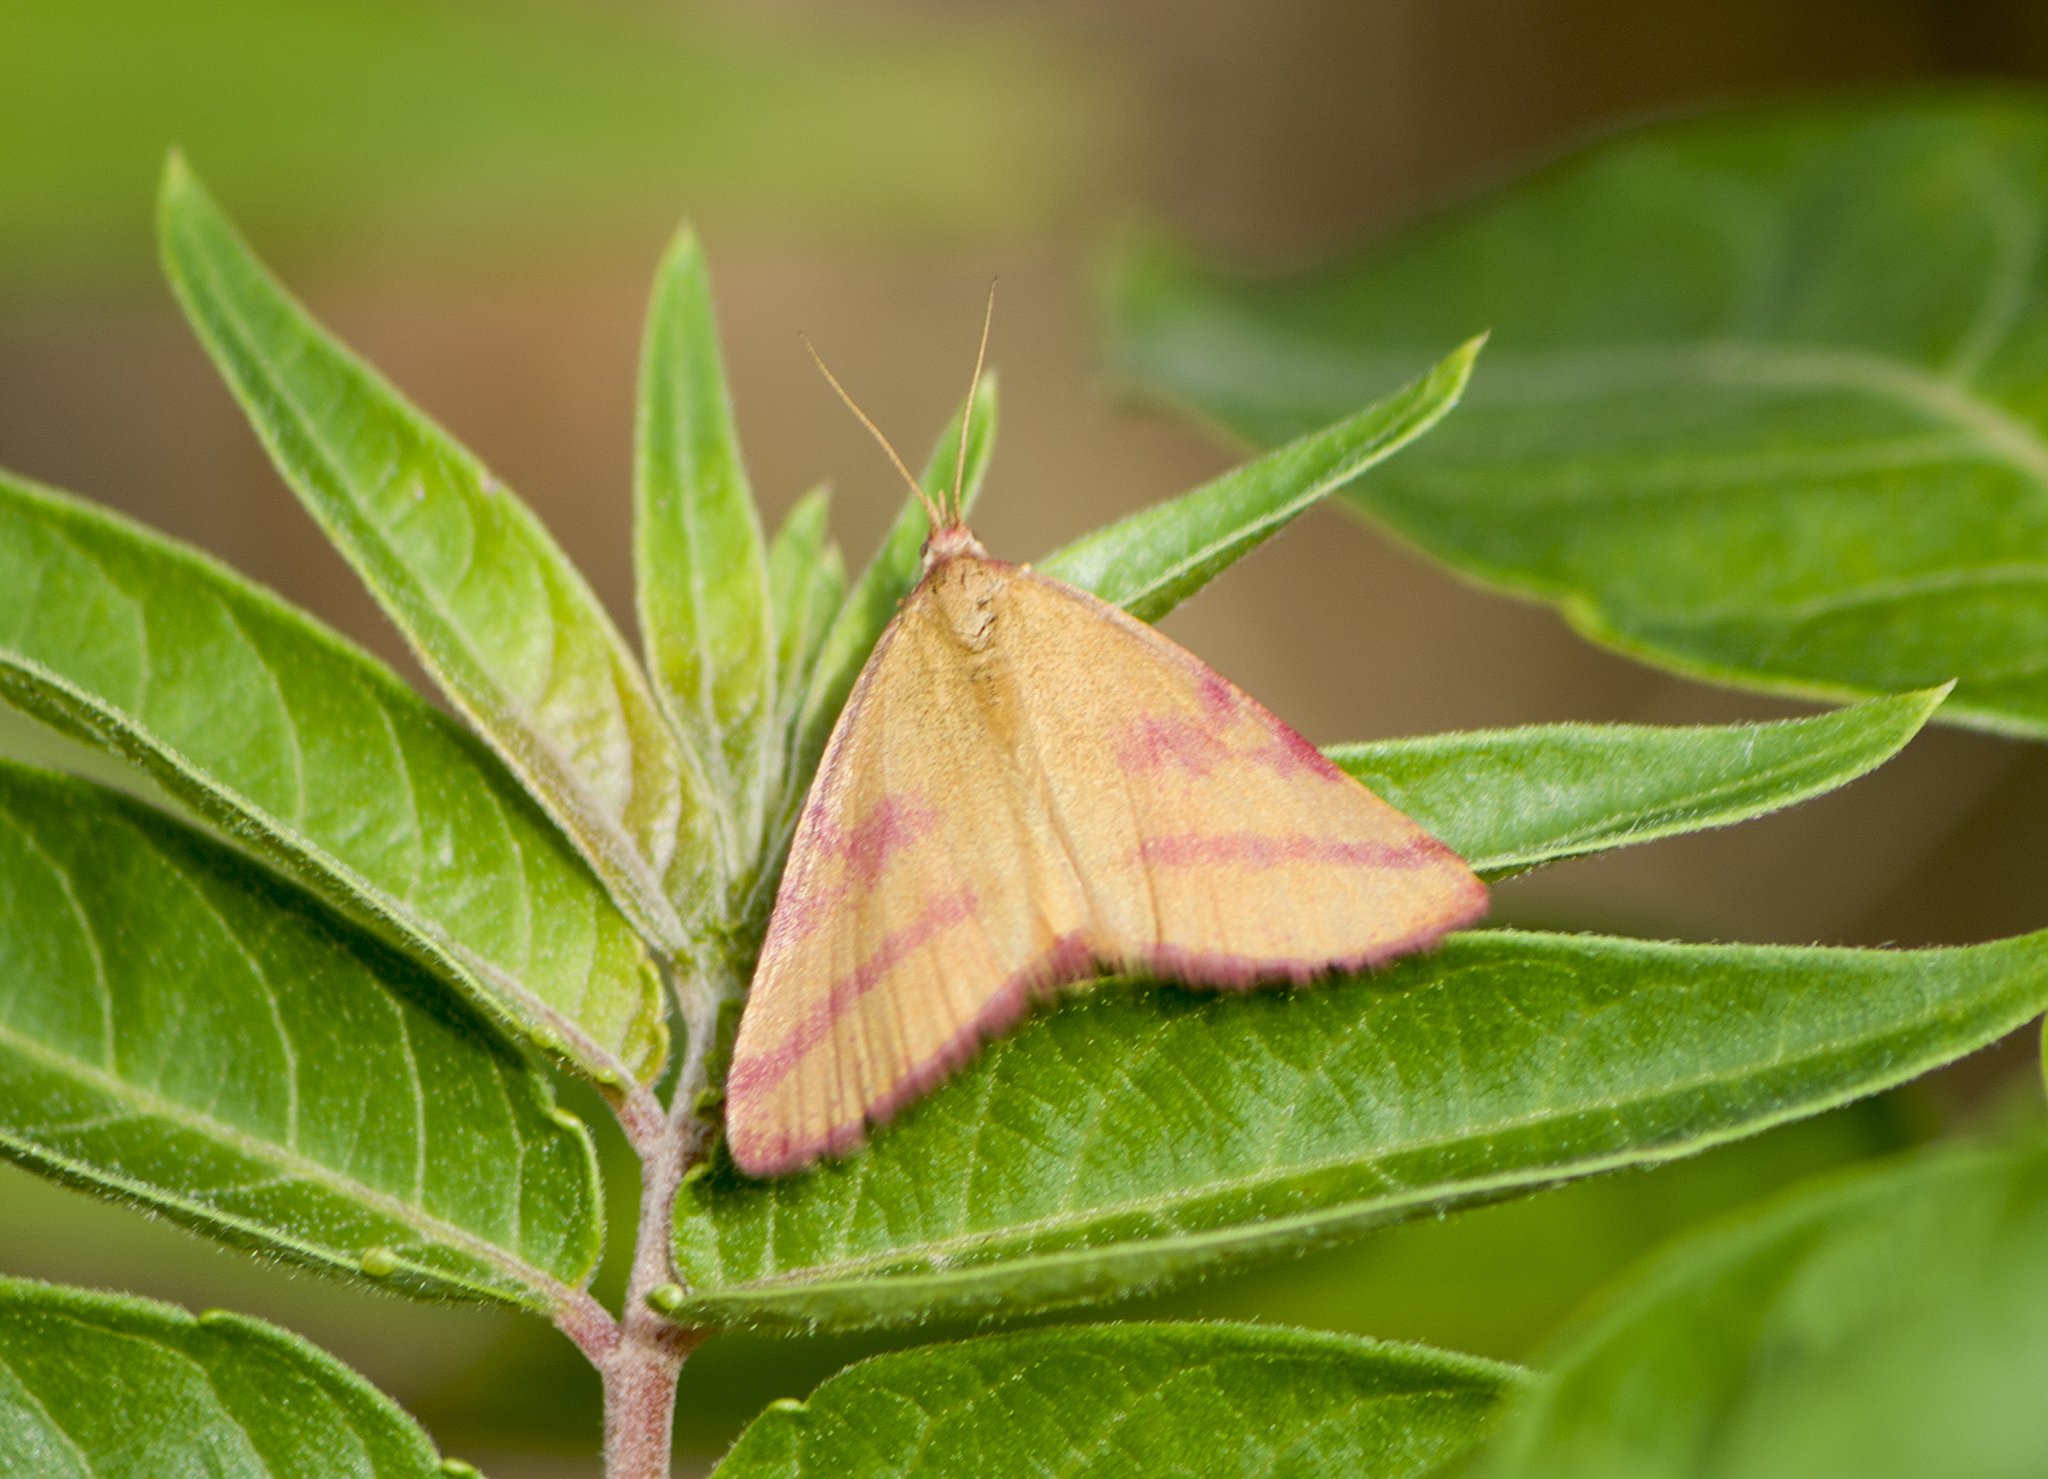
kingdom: Animalia
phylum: Arthropoda
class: Insecta
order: Lepidoptera
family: Geometridae
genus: Lythria
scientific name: Lythria purpuraria
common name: Purple-barred yellow
